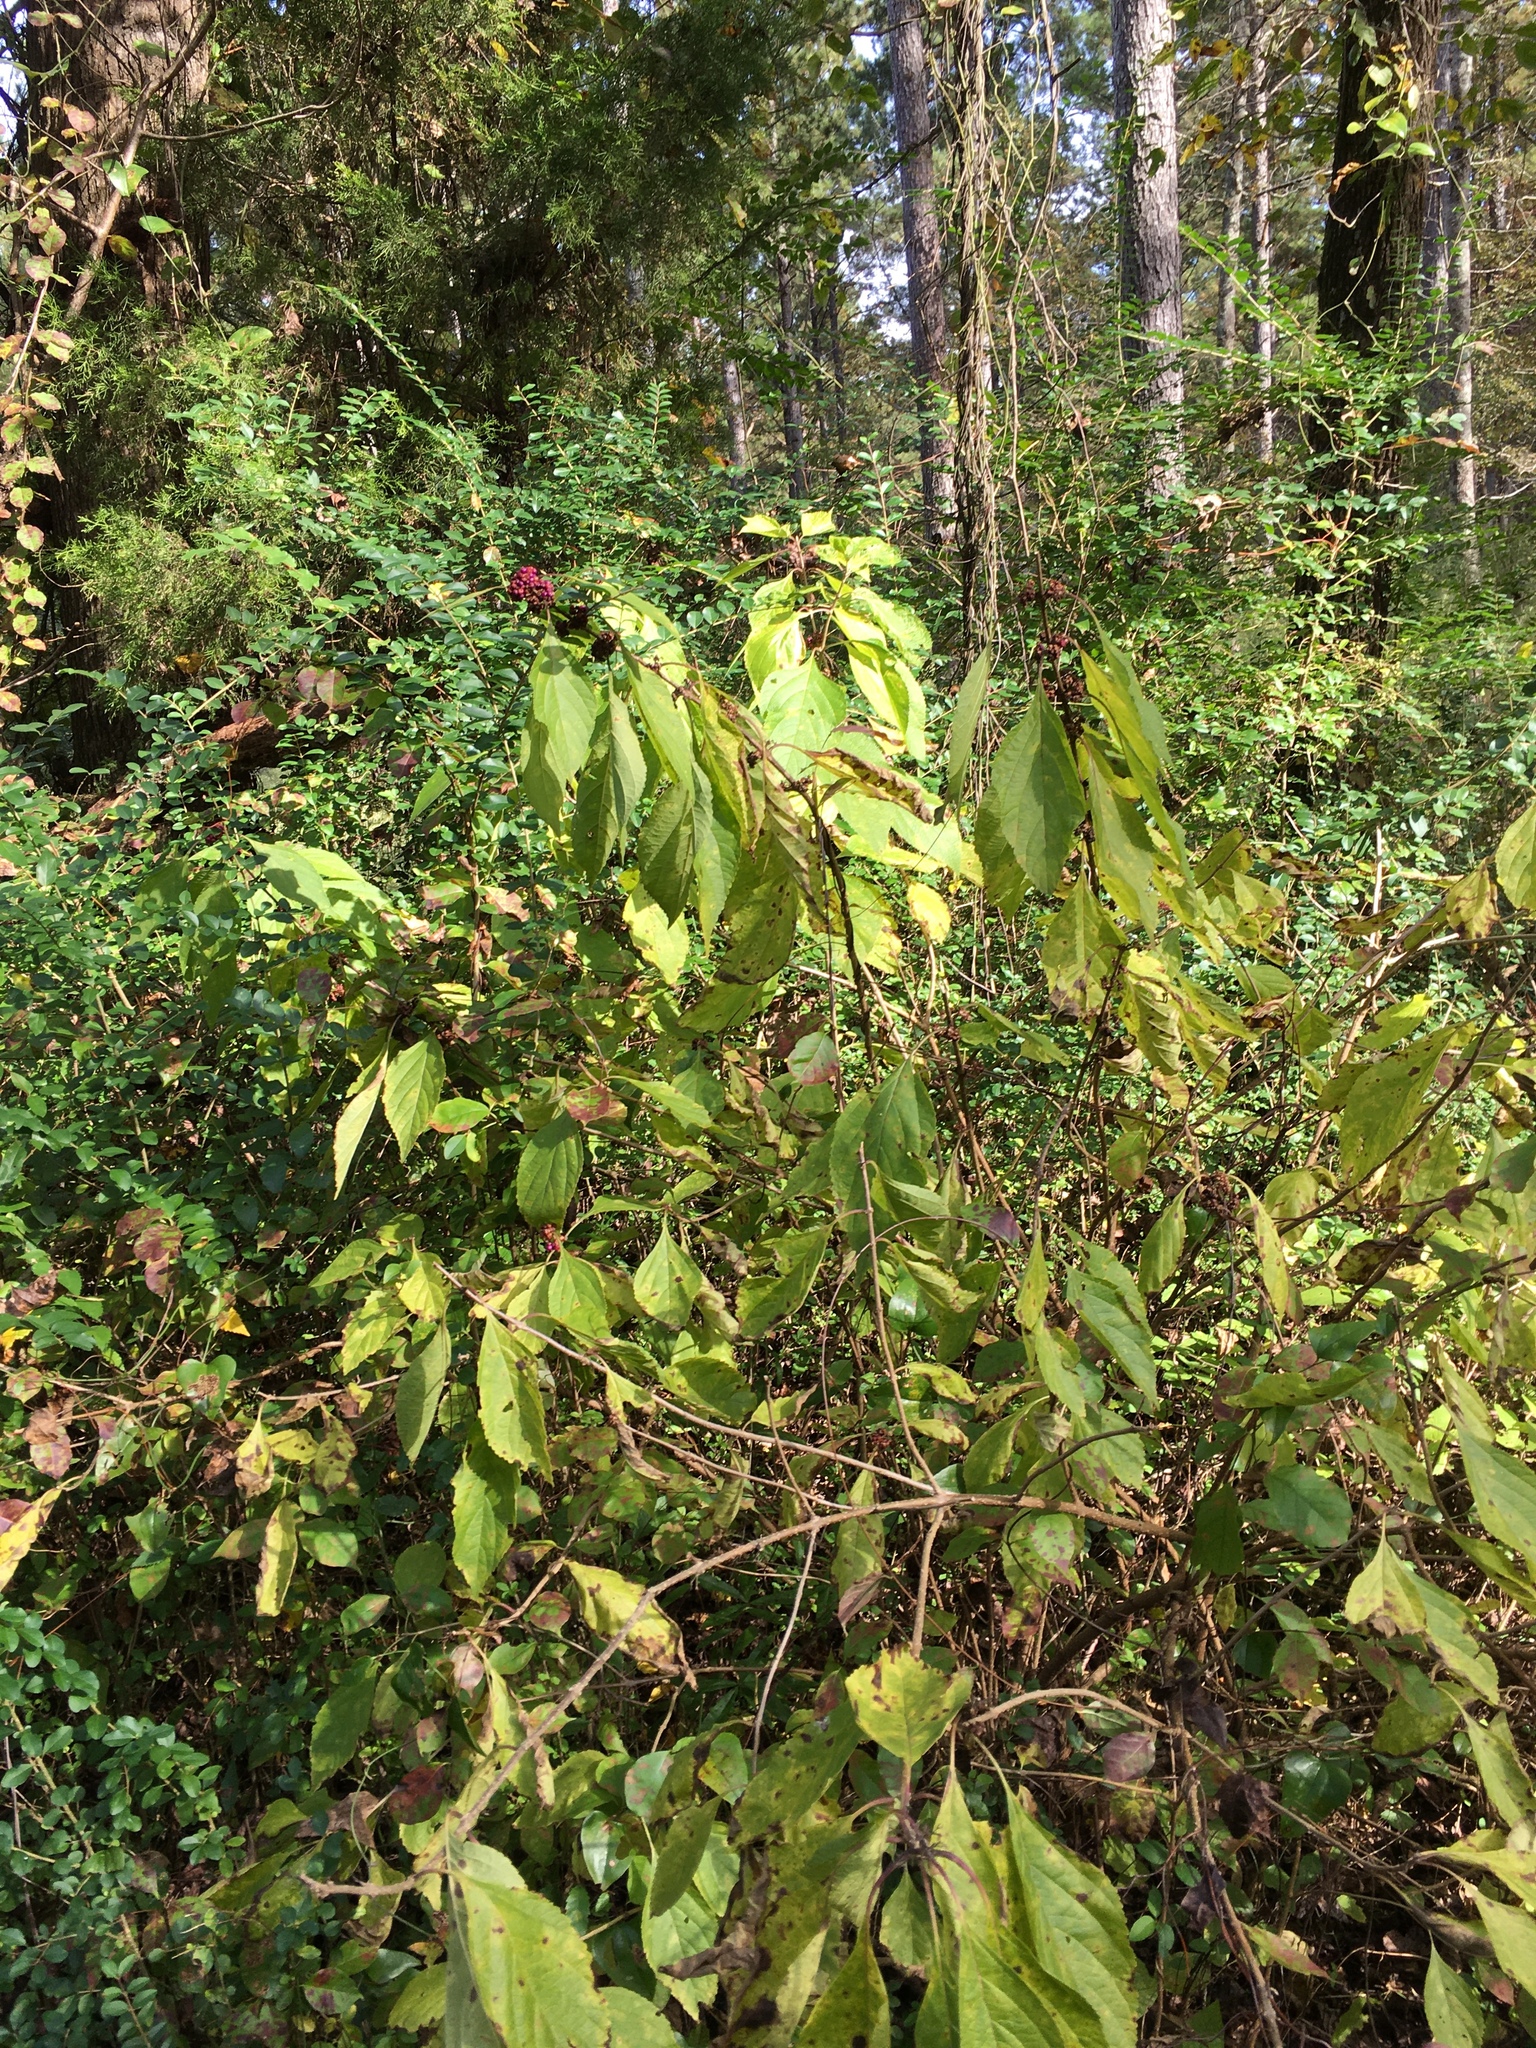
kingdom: Plantae
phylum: Tracheophyta
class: Magnoliopsida
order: Lamiales
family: Lamiaceae
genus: Callicarpa
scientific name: Callicarpa americana
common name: American beautyberry
